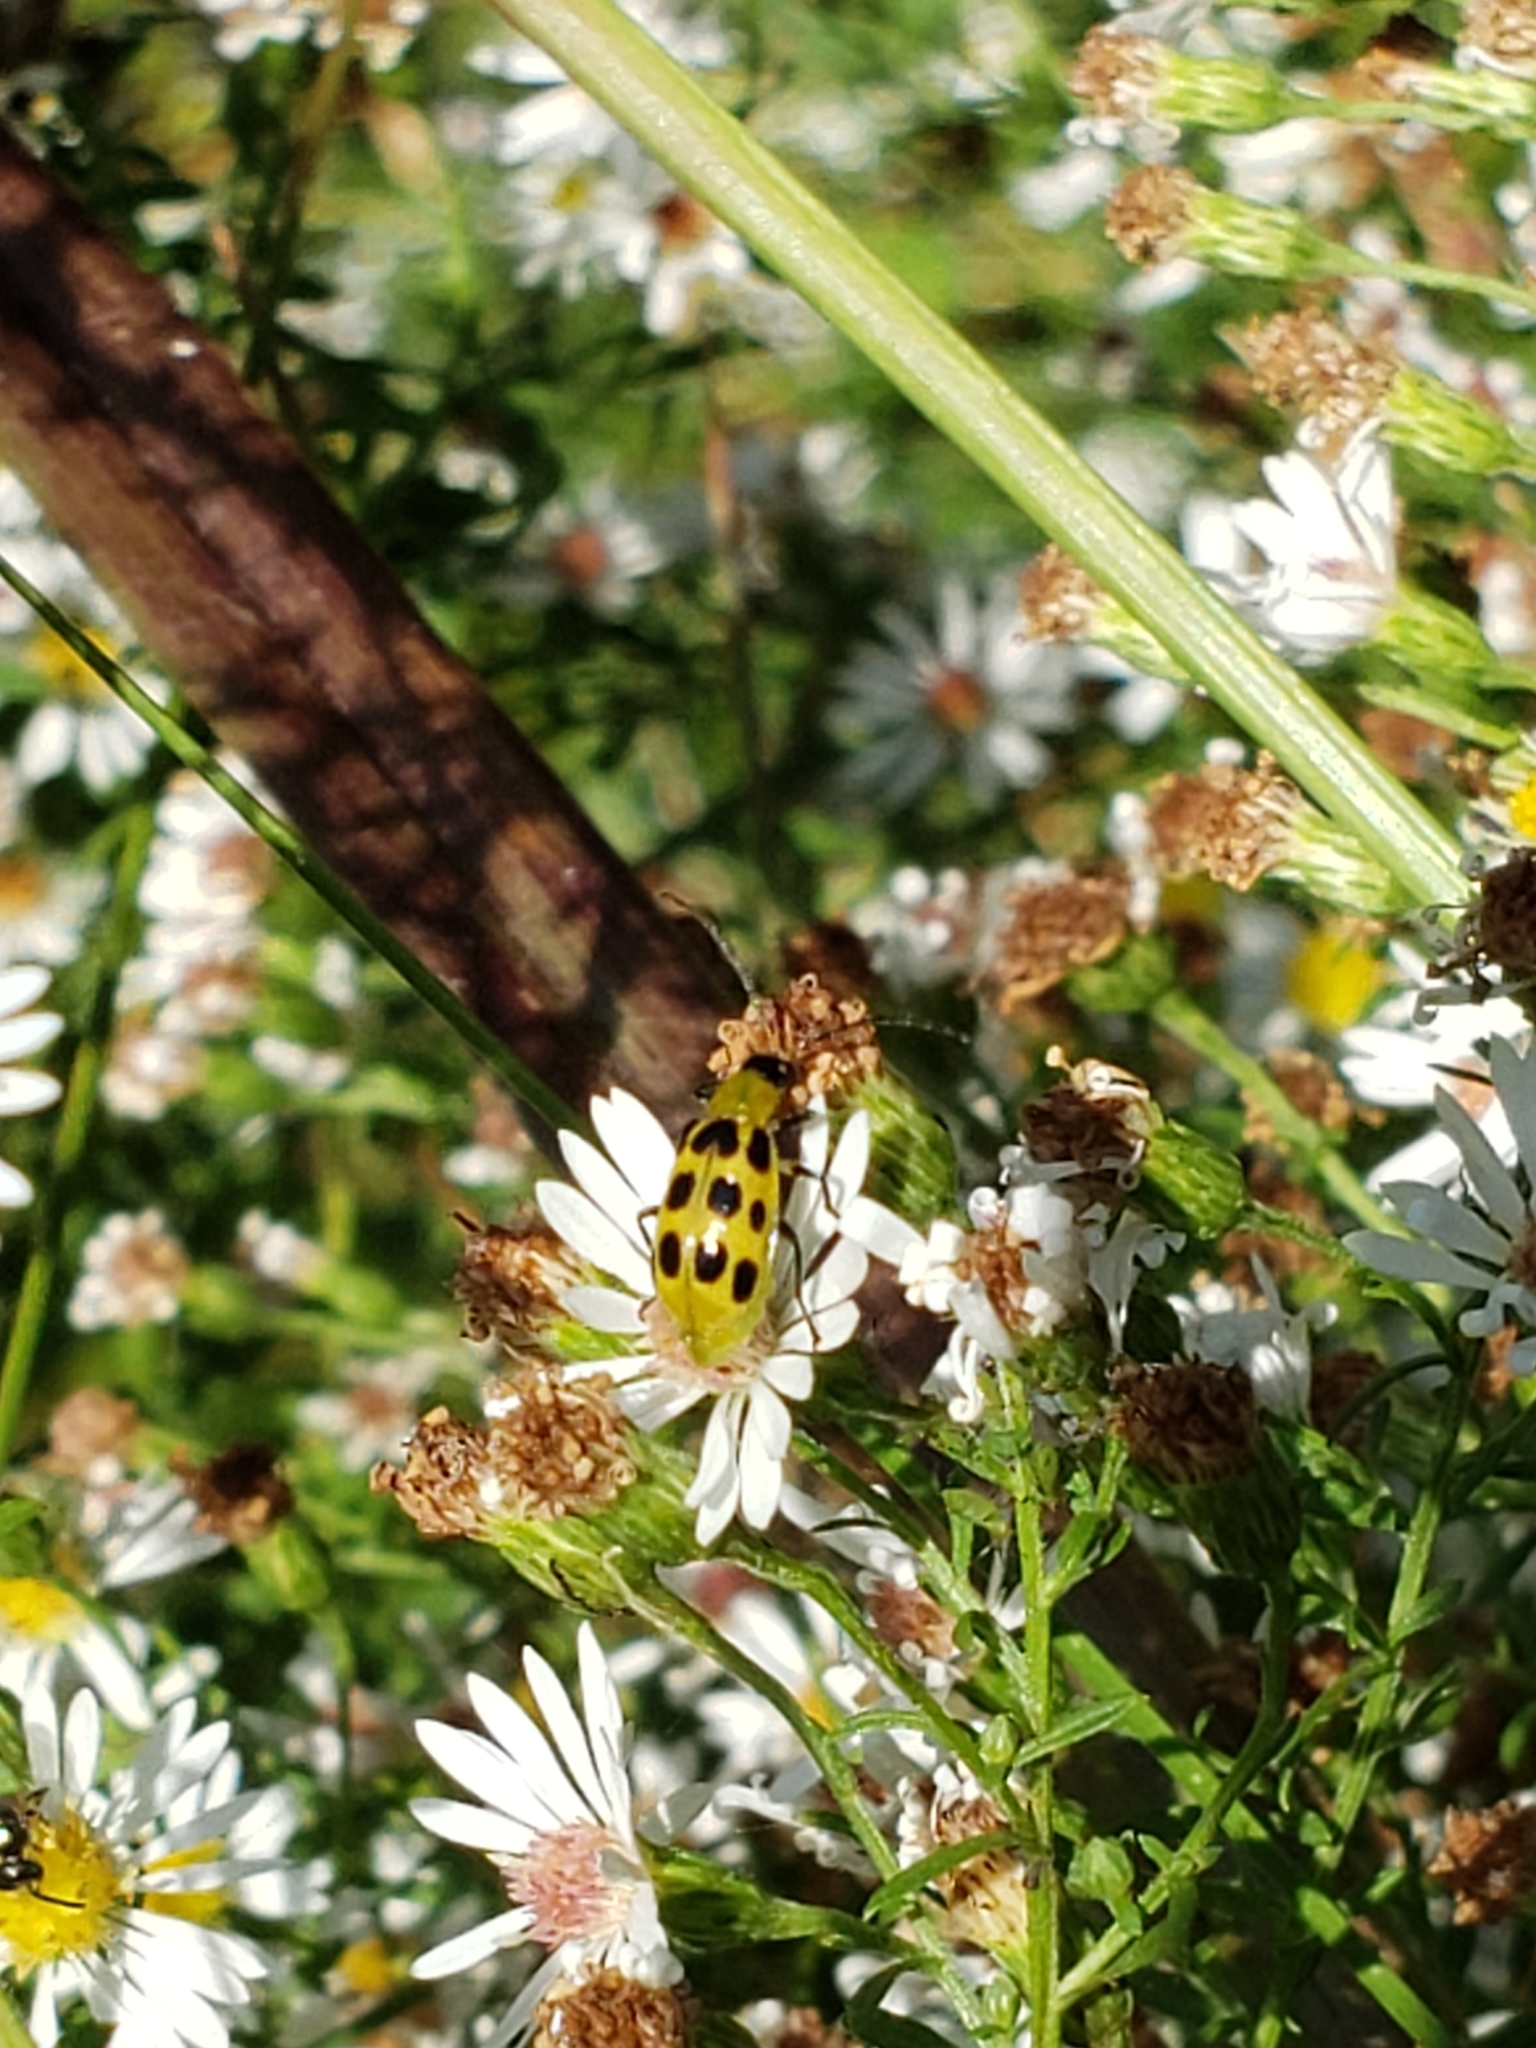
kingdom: Animalia
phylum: Arthropoda
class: Insecta
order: Coleoptera
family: Chrysomelidae
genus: Diabrotica
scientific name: Diabrotica undecimpunctata
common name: Spotted cucumber beetle
